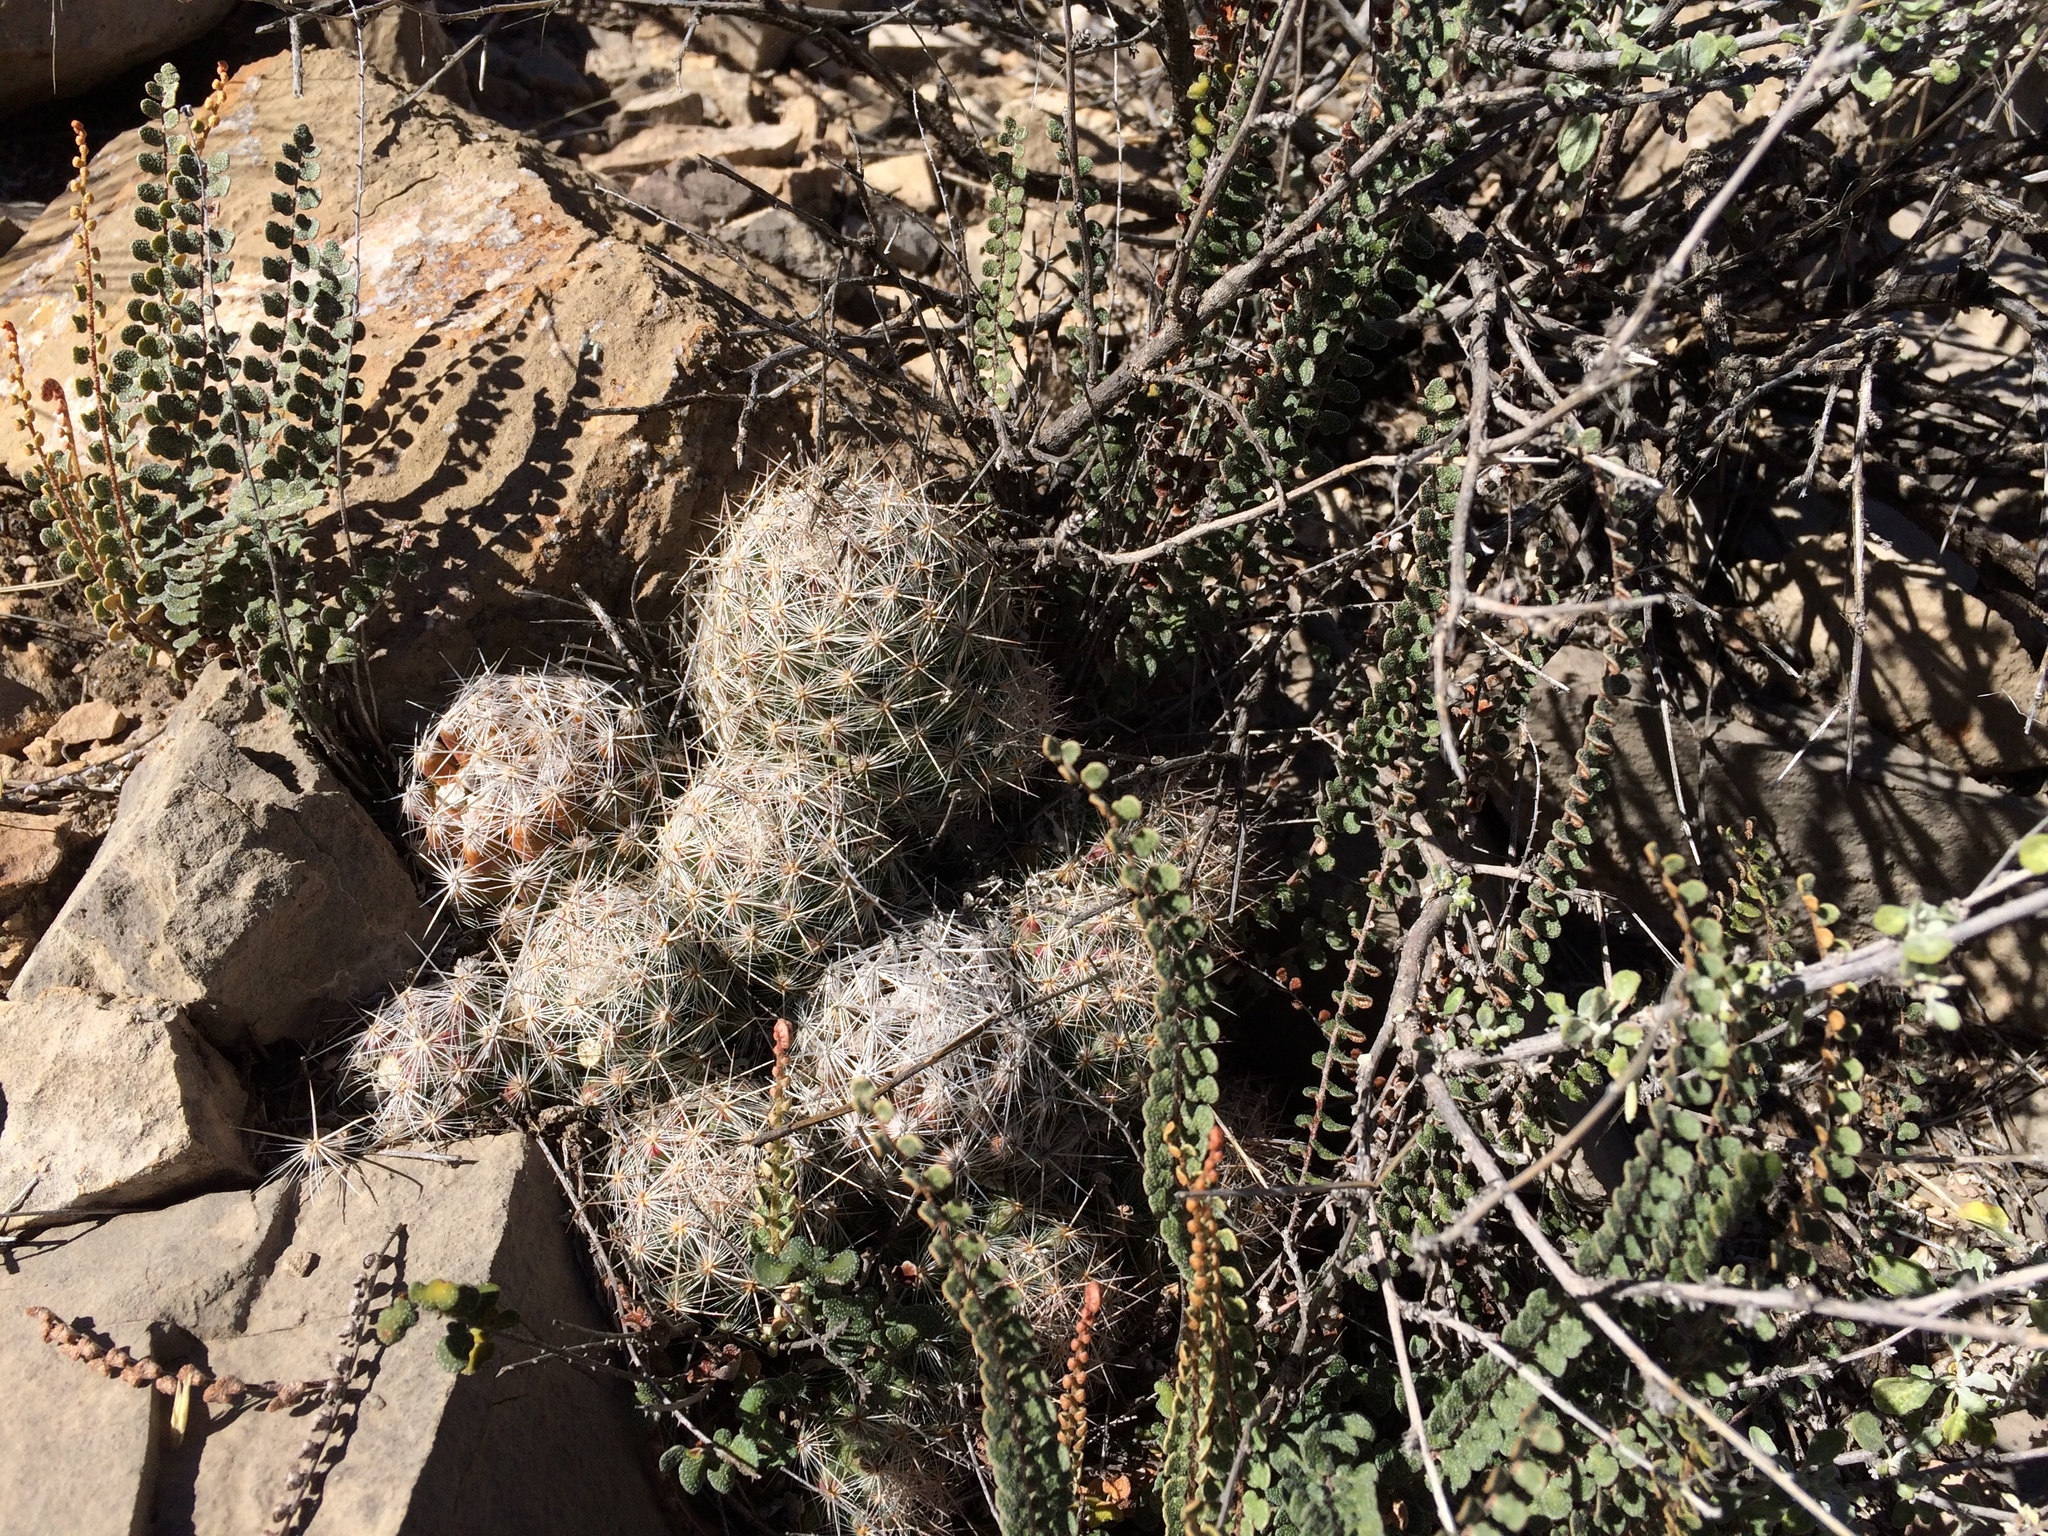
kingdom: Plantae
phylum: Tracheophyta
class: Magnoliopsida
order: Caryophyllales
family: Cactaceae
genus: Pelecyphora
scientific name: Pelecyphora tuberculosa
